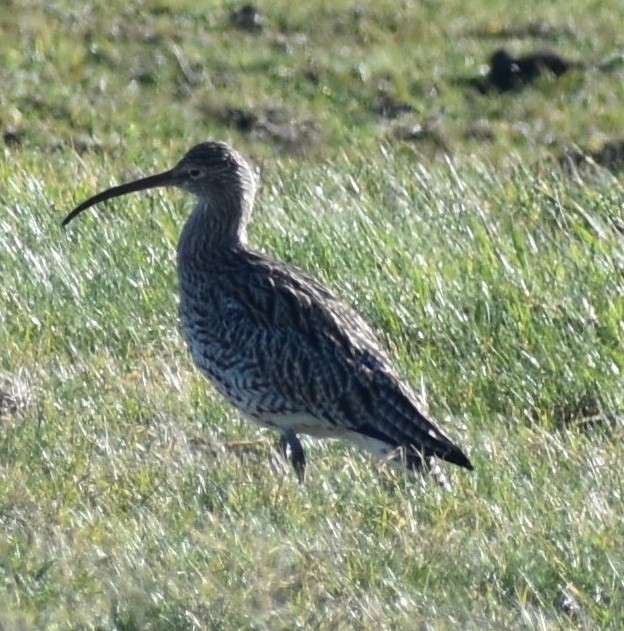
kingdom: Animalia
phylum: Chordata
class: Aves
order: Charadriiformes
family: Scolopacidae
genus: Numenius
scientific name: Numenius arquata
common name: Eurasian curlew
